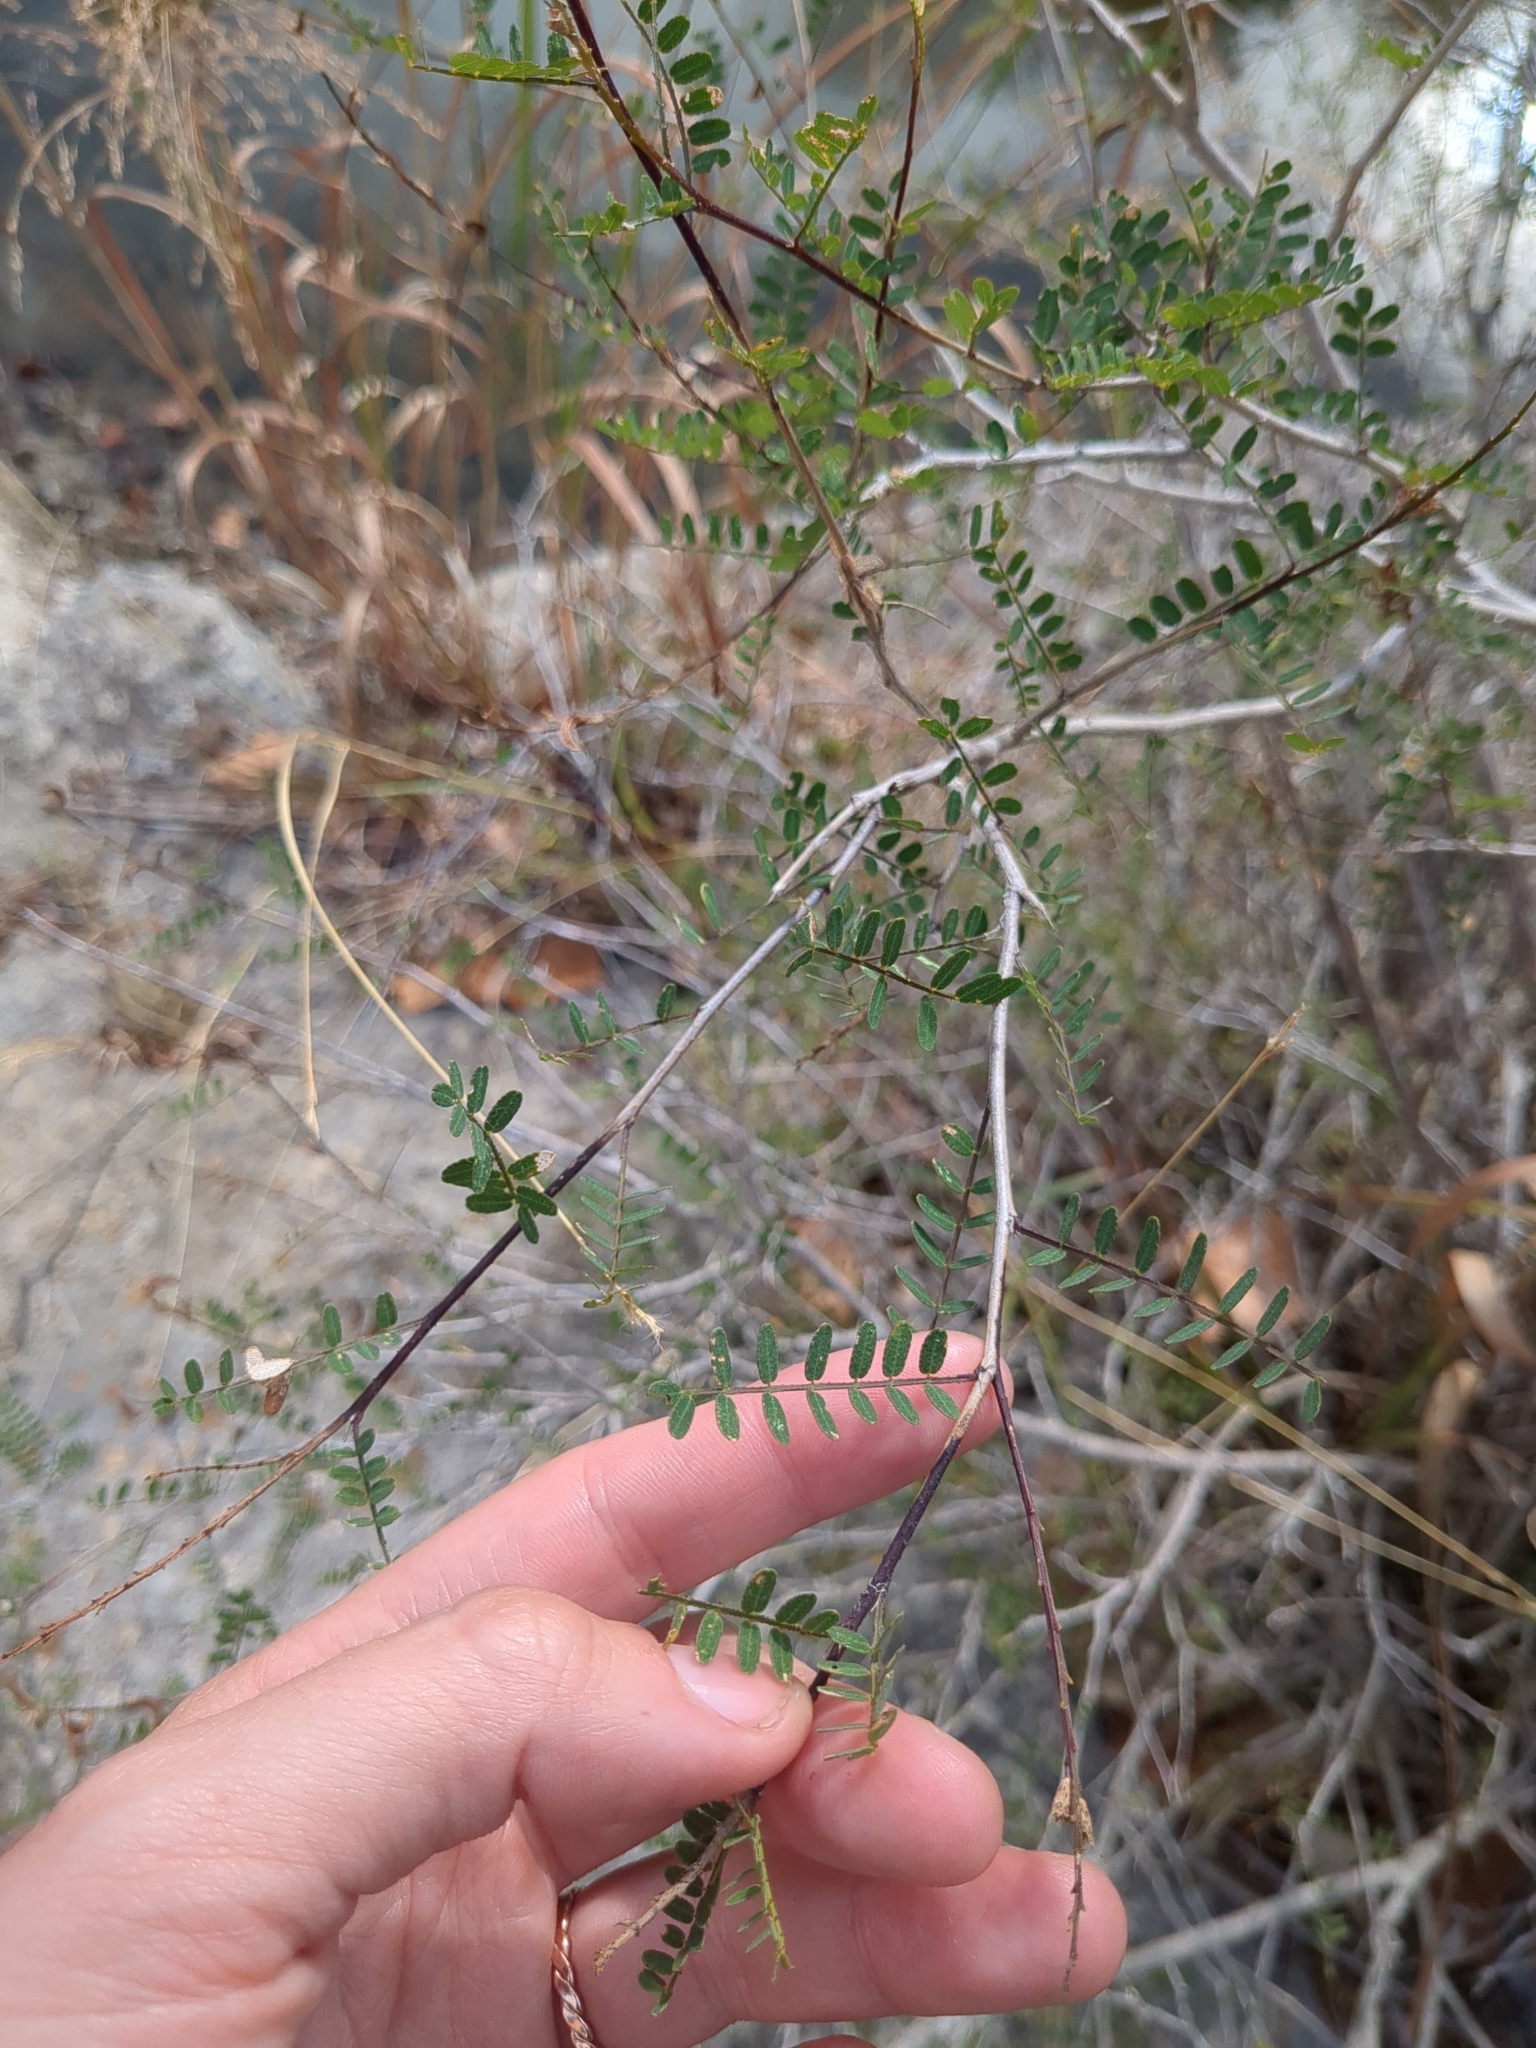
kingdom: Plantae
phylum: Tracheophyta
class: Magnoliopsida
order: Fabales
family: Fabaceae
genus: Eysenhardtia
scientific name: Eysenhardtia texana
